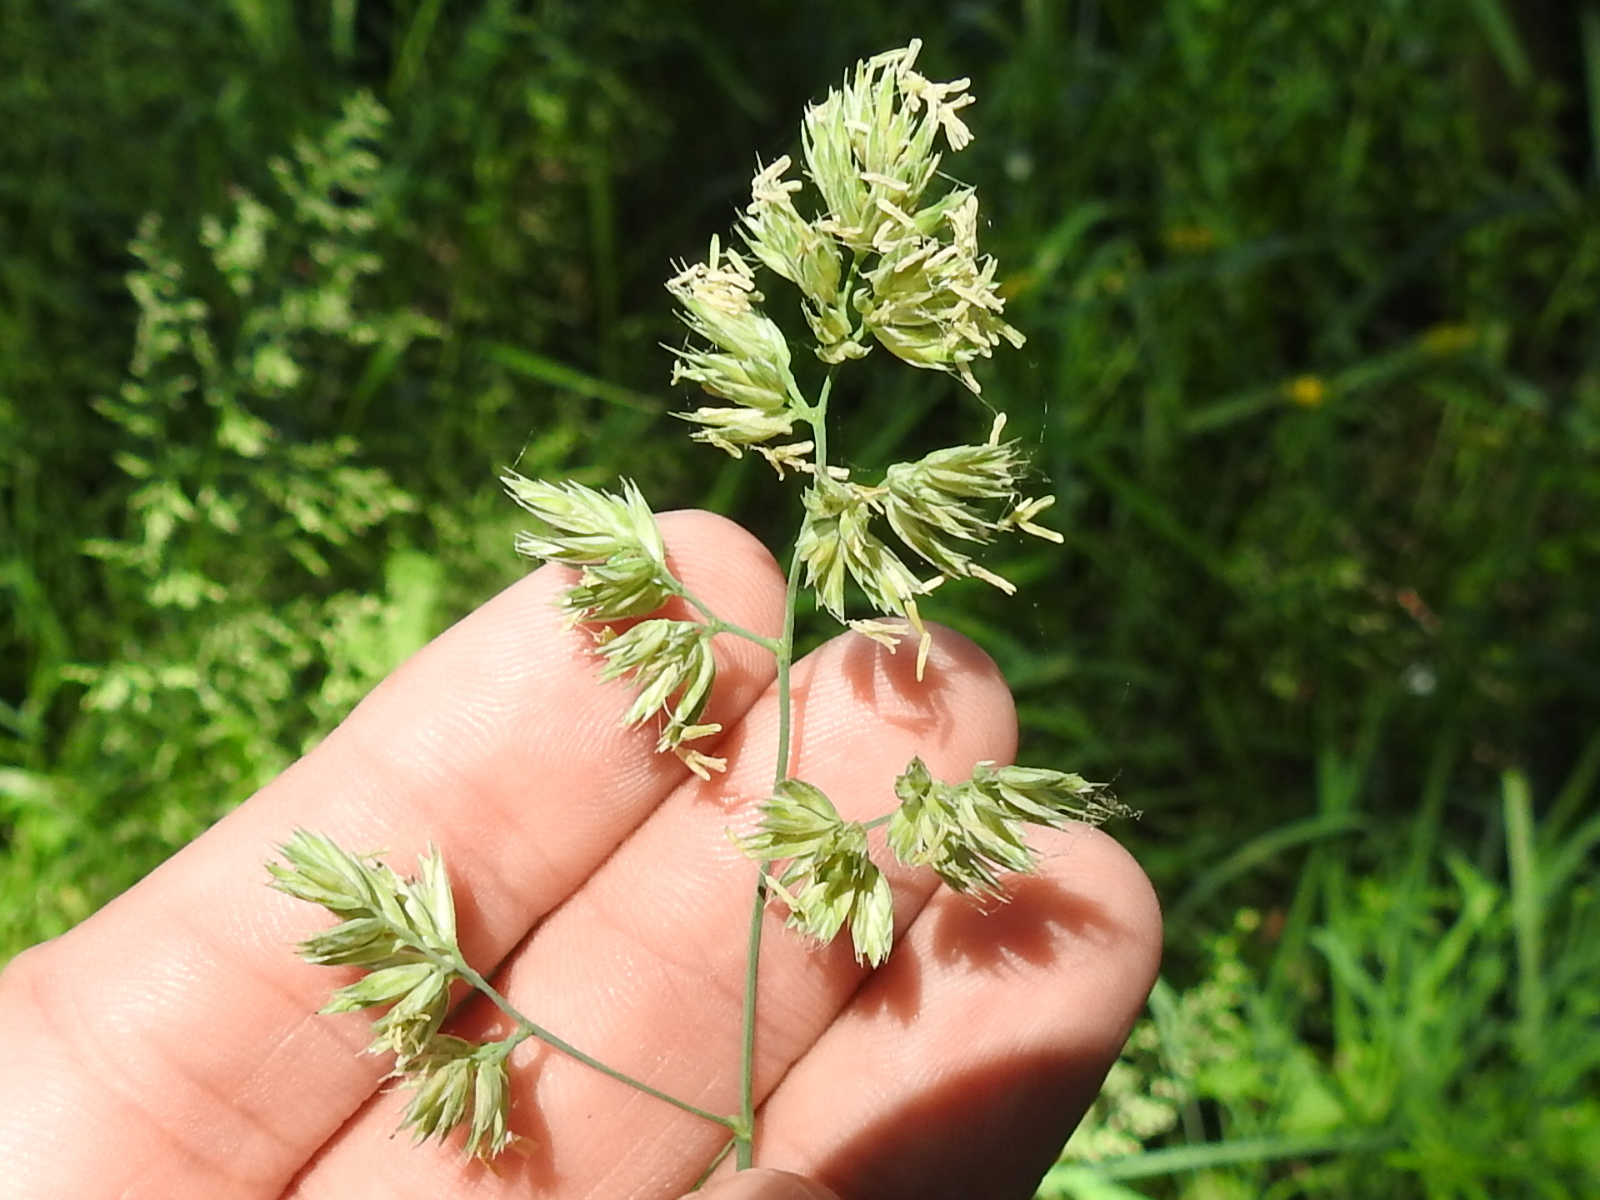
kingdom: Plantae
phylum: Tracheophyta
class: Liliopsida
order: Poales
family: Poaceae
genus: Dactylis
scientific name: Dactylis glomerata
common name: Orchardgrass
